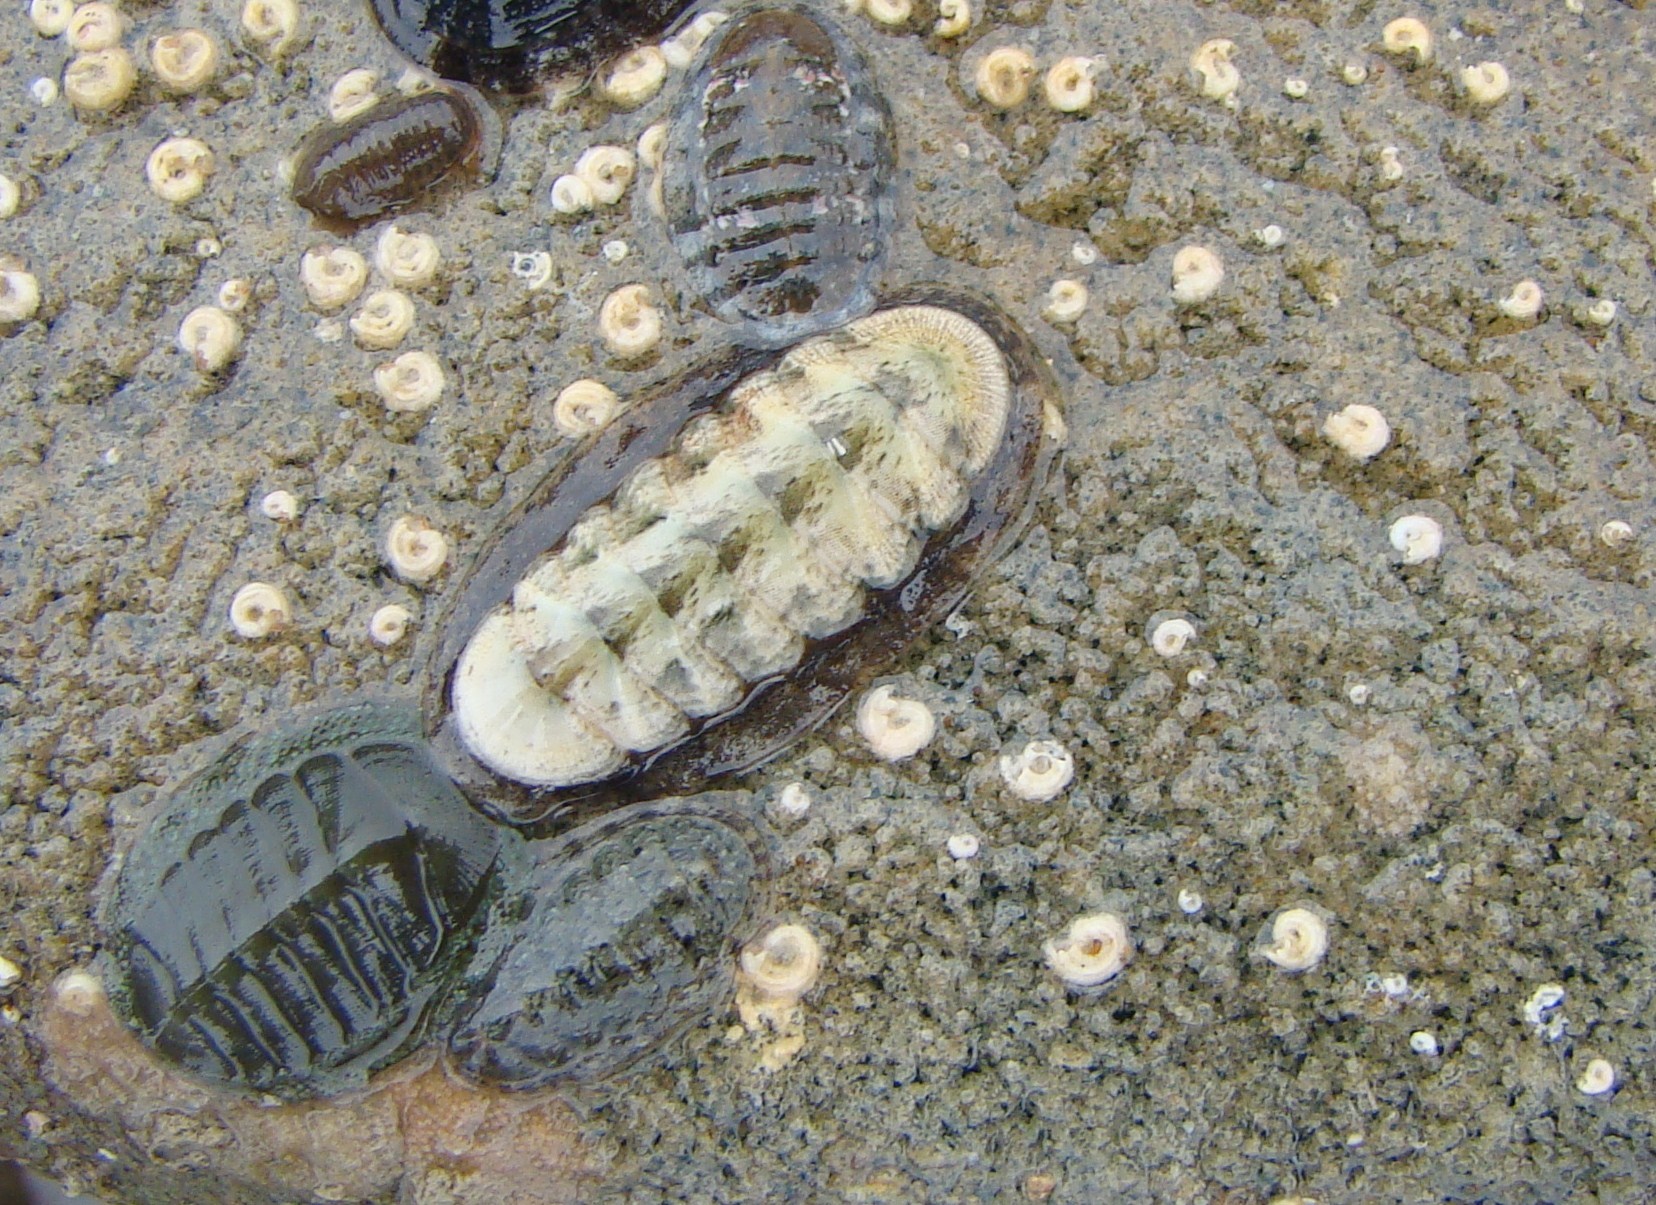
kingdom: Animalia
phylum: Mollusca
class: Polyplacophora
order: Chitonida
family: Ischnochitonidae
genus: Ischnochiton
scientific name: Ischnochiton maorianus
